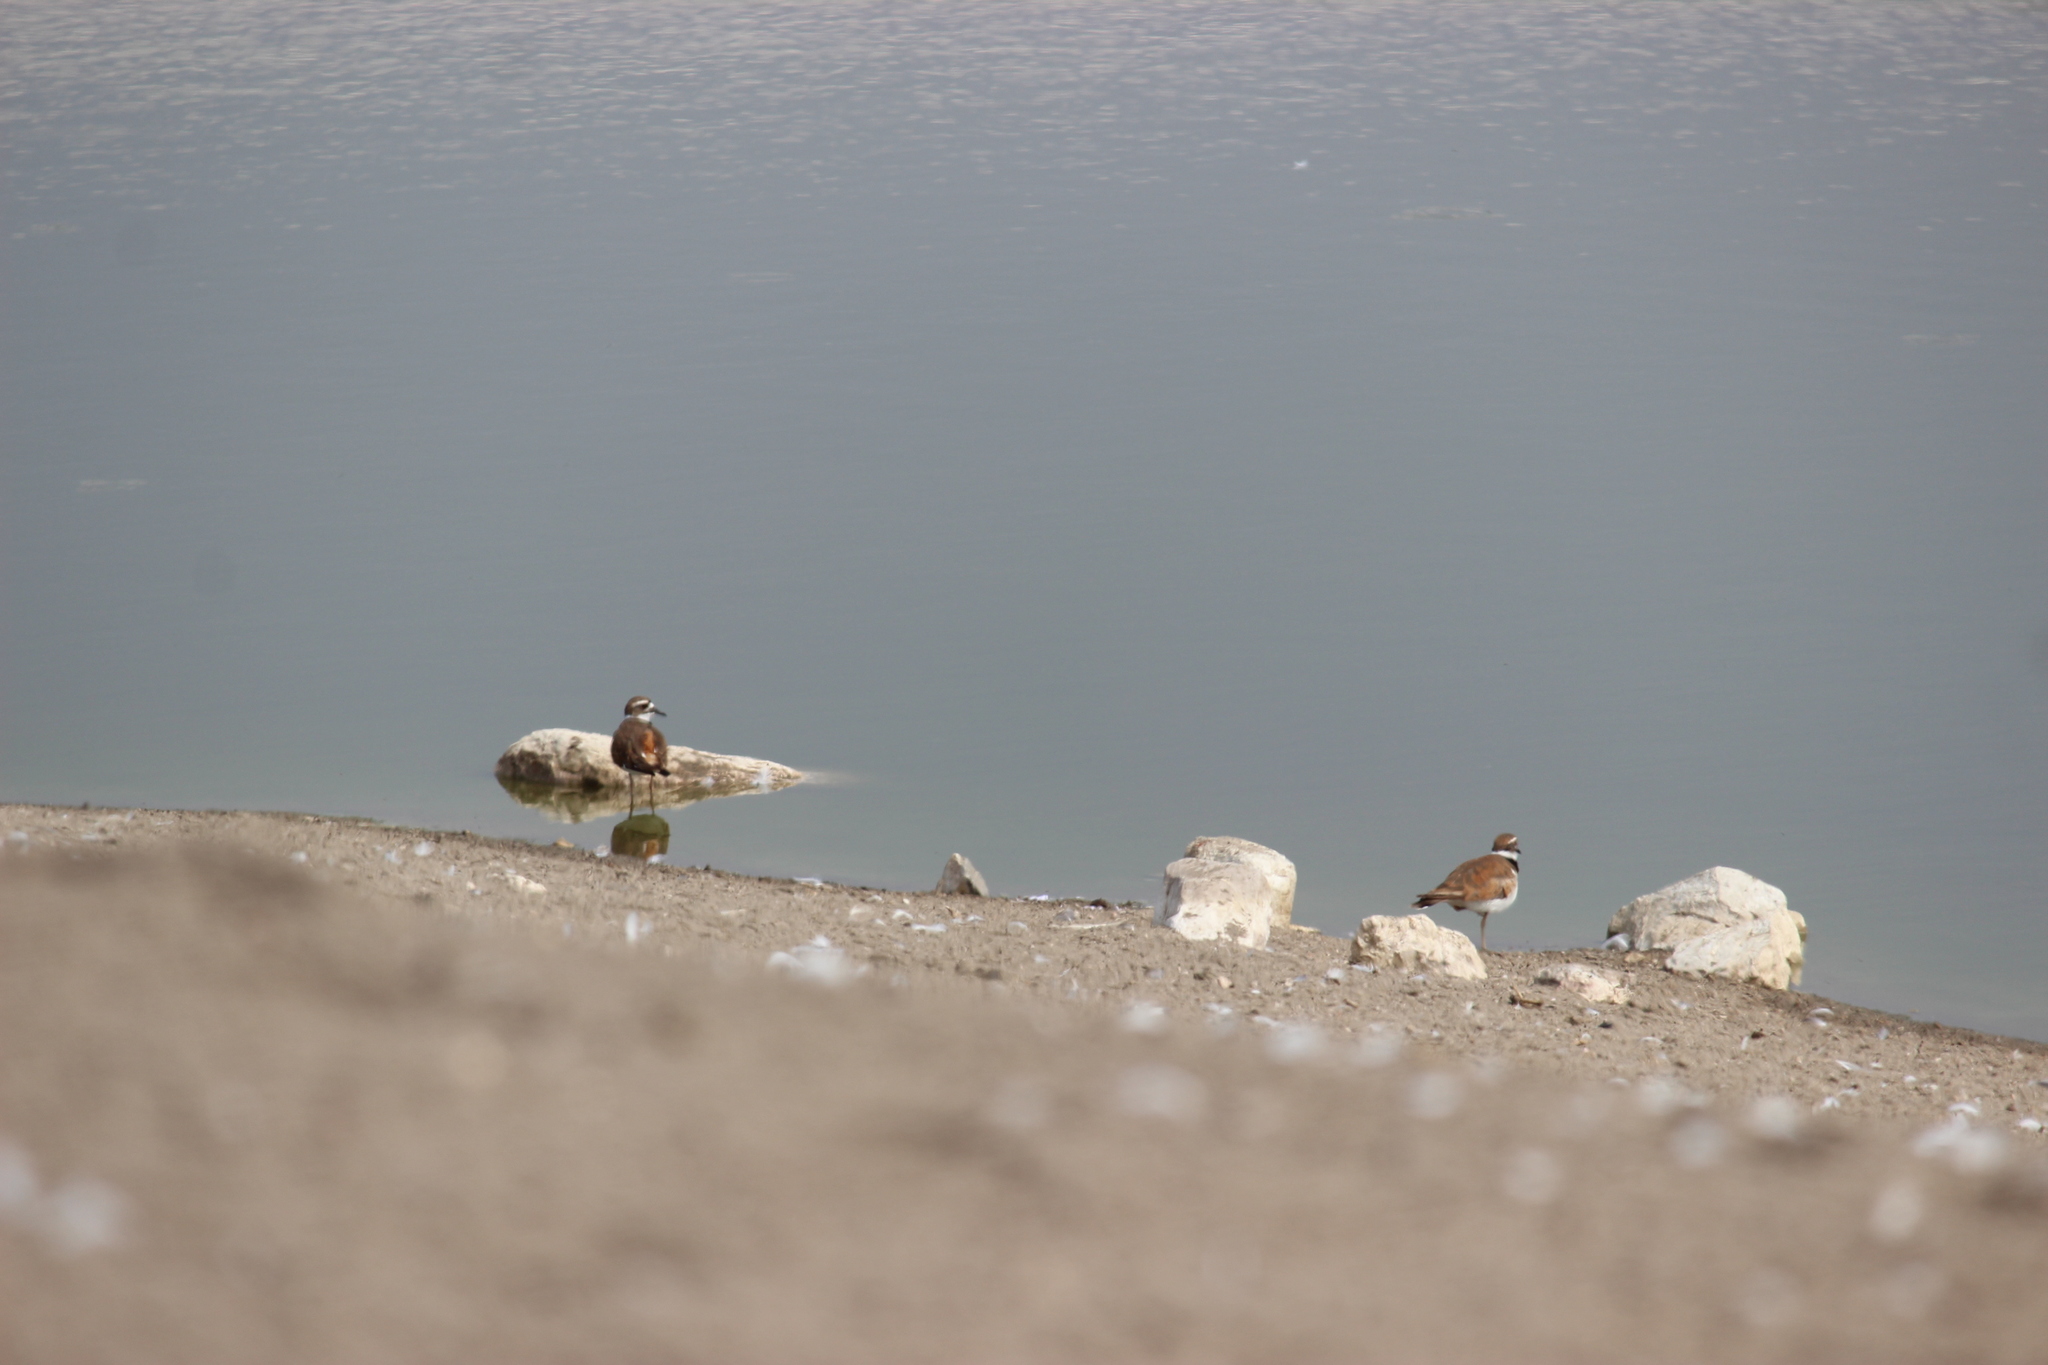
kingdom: Animalia
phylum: Chordata
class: Aves
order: Charadriiformes
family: Charadriidae
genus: Charadrius
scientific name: Charadrius vociferus
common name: Killdeer
